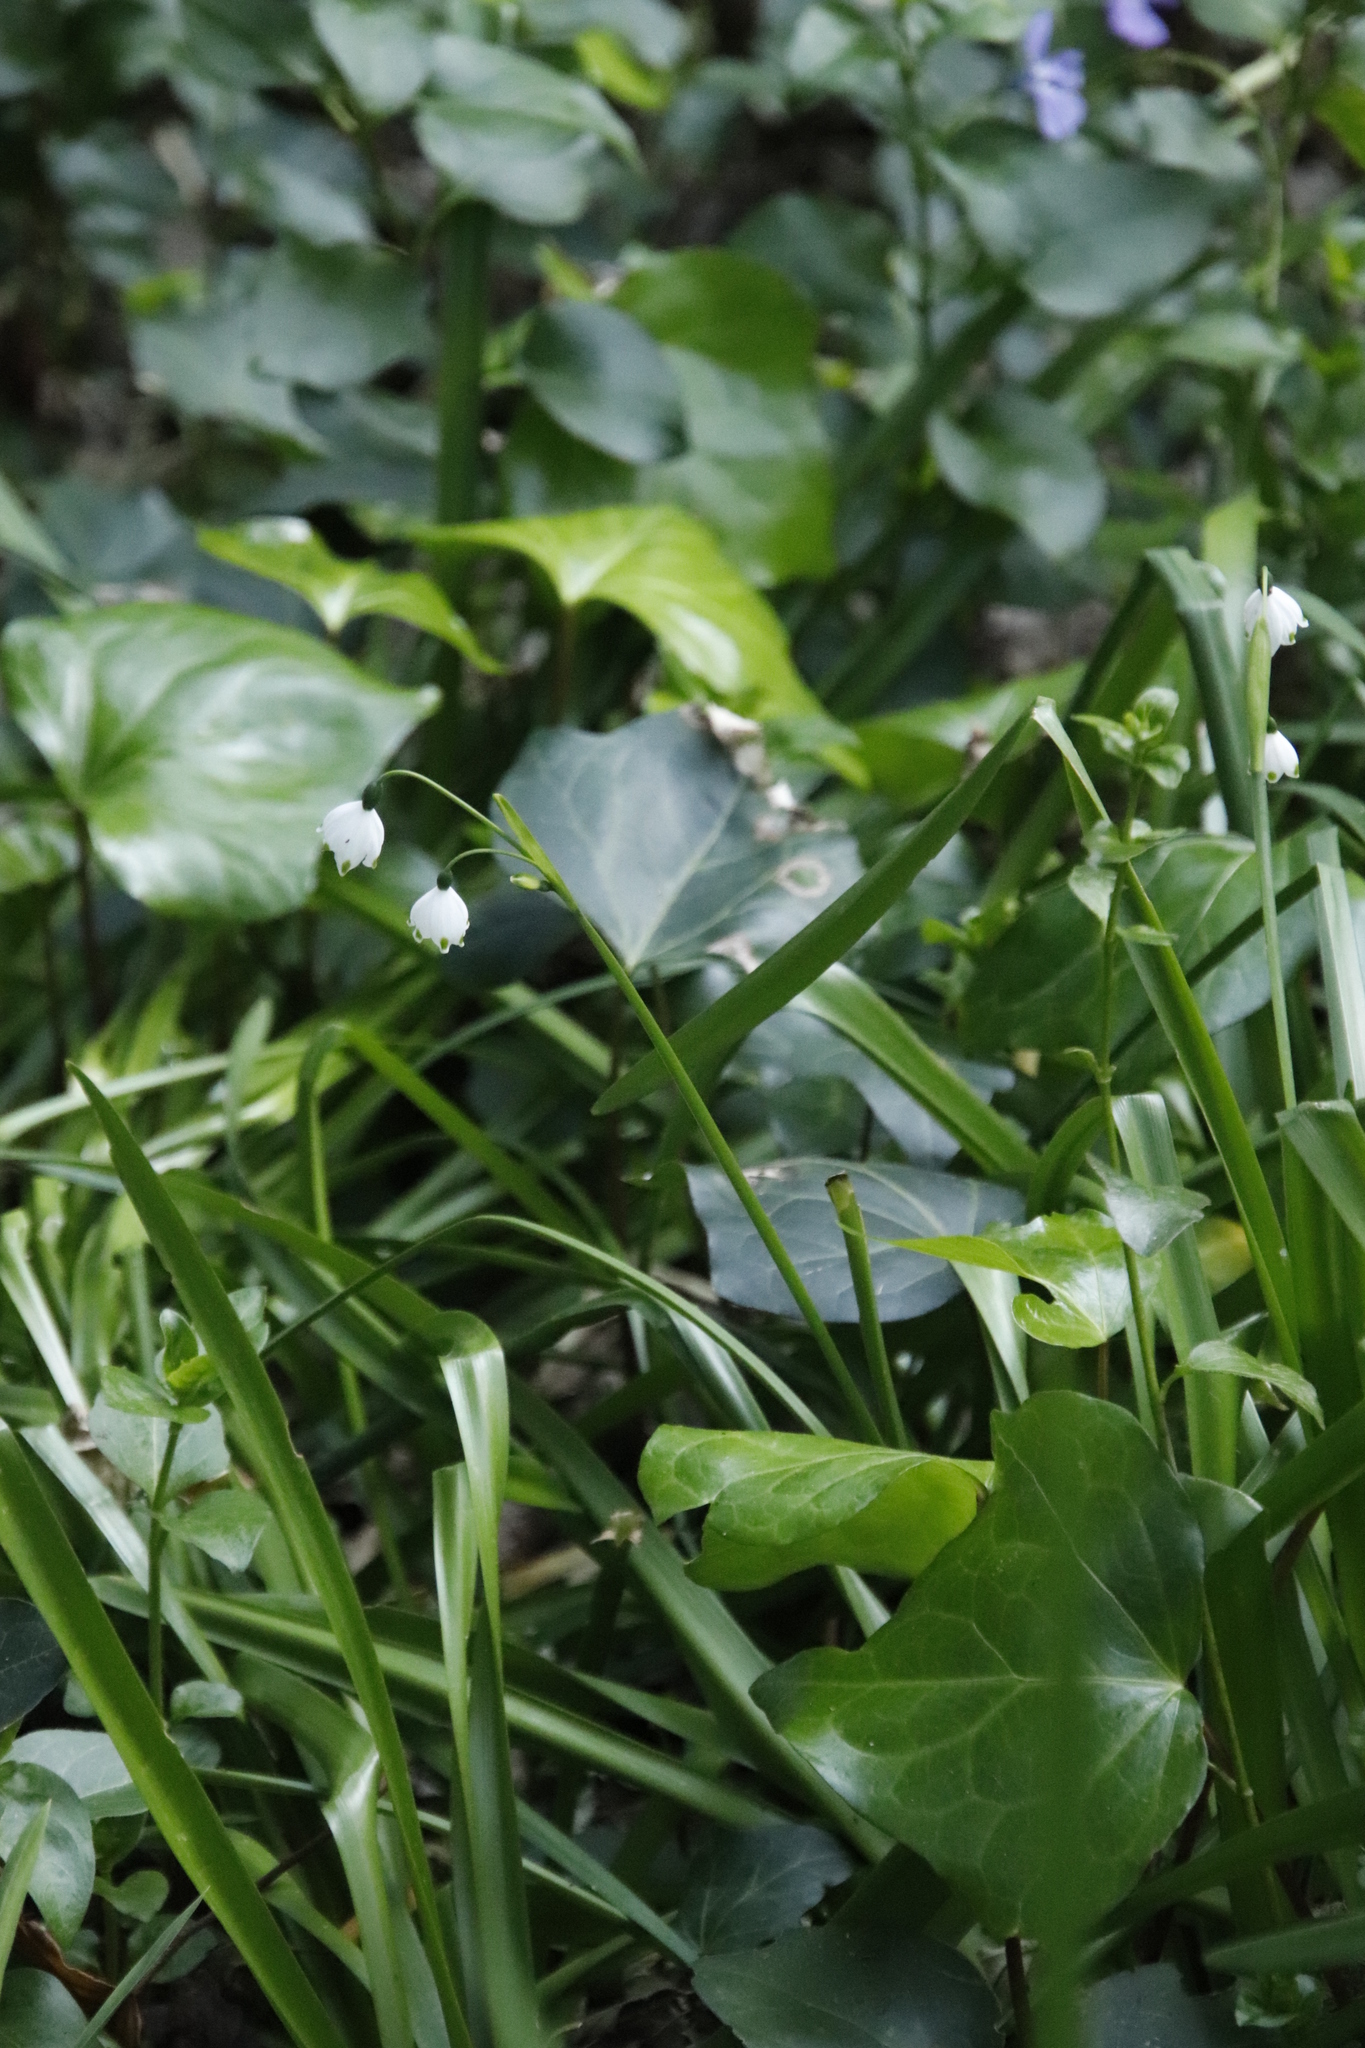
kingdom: Plantae
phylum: Tracheophyta
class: Liliopsida
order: Asparagales
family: Amaryllidaceae
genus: Leucojum
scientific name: Leucojum aestivum
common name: Summer snowflake
